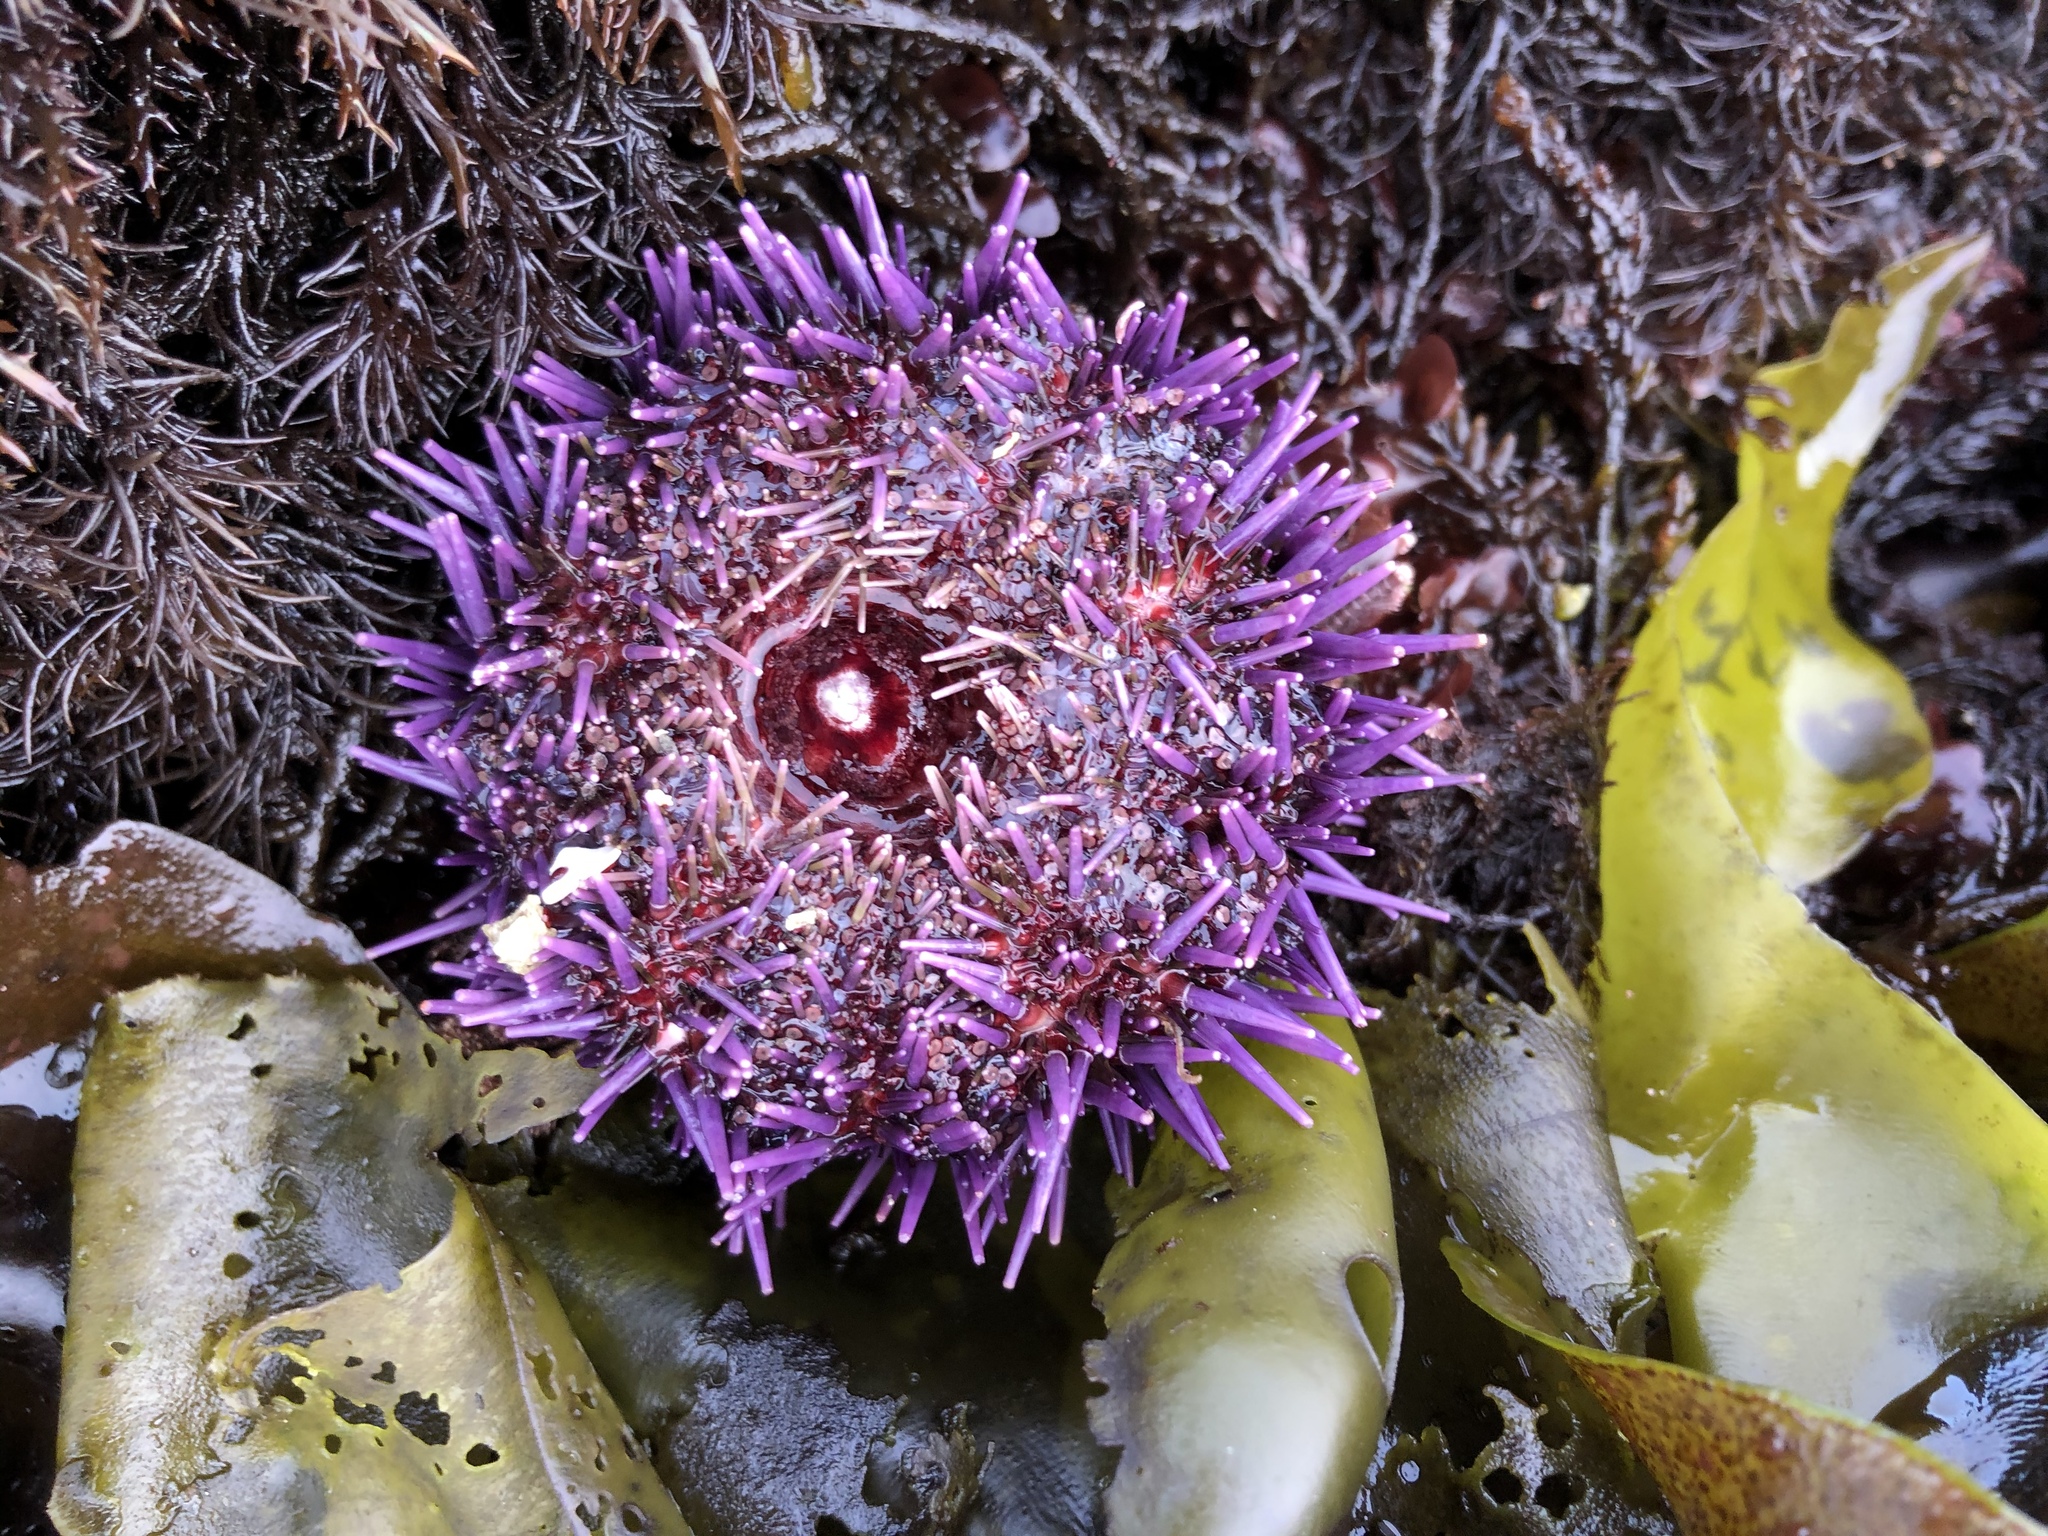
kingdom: Animalia
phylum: Echinodermata
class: Echinoidea
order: Camarodonta
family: Strongylocentrotidae
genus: Strongylocentrotus
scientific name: Strongylocentrotus purpuratus
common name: Purple sea urchin
